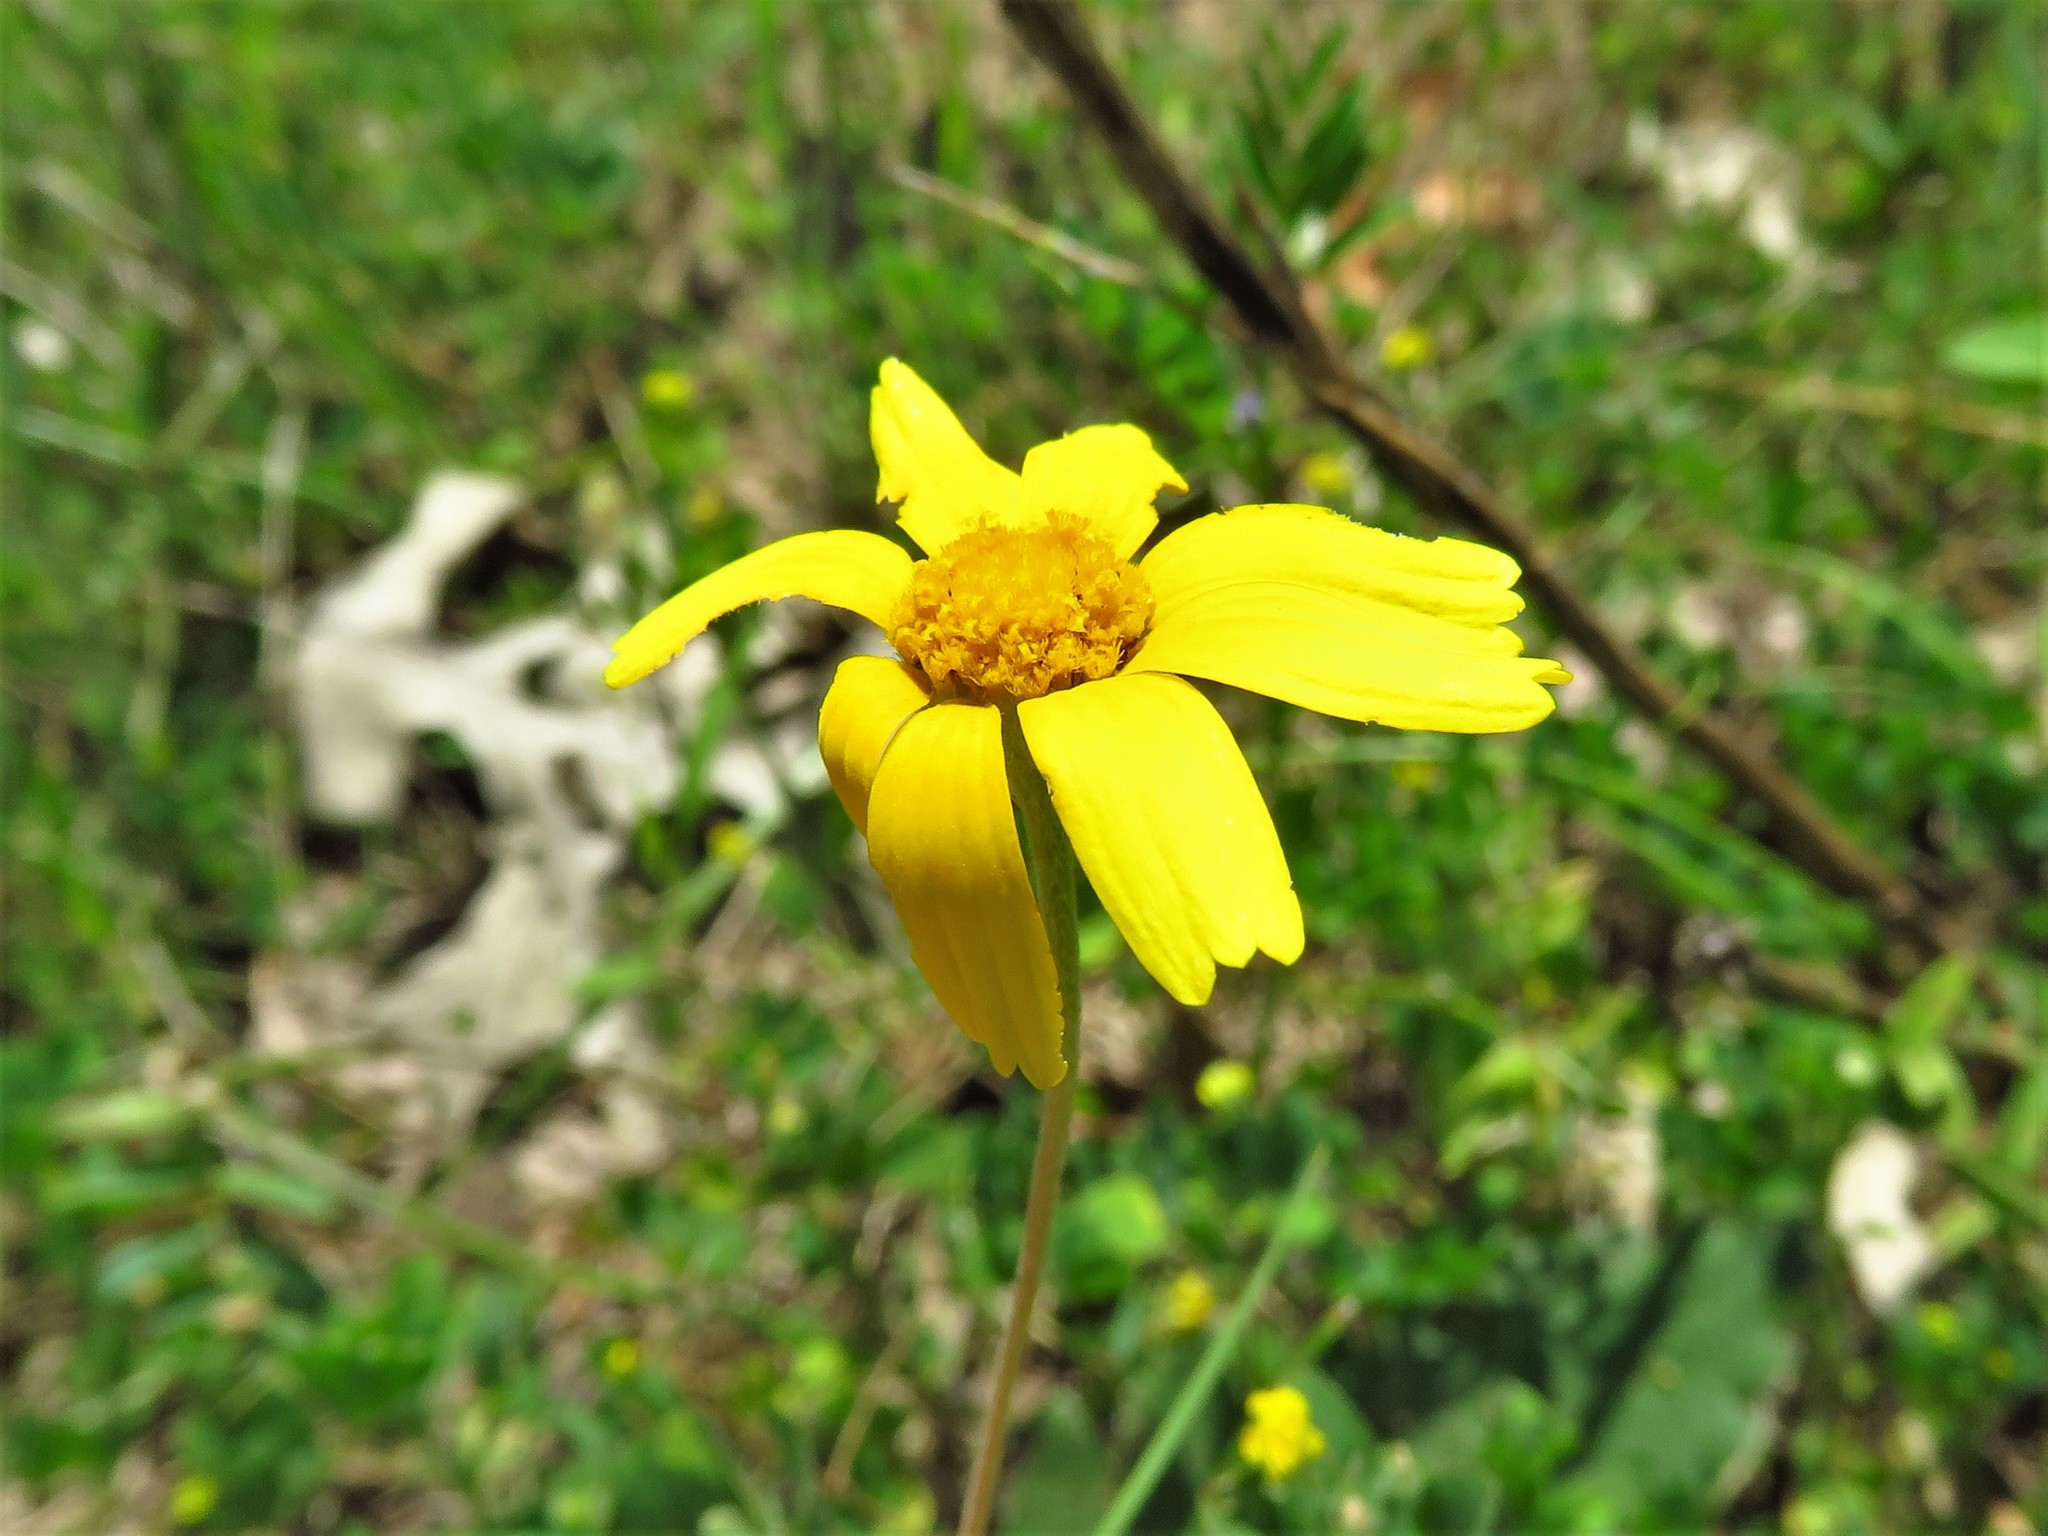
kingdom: Plantae
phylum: Tracheophyta
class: Magnoliopsida
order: Asterales
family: Asteraceae
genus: Tetraneuris
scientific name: Tetraneuris linearifolia
